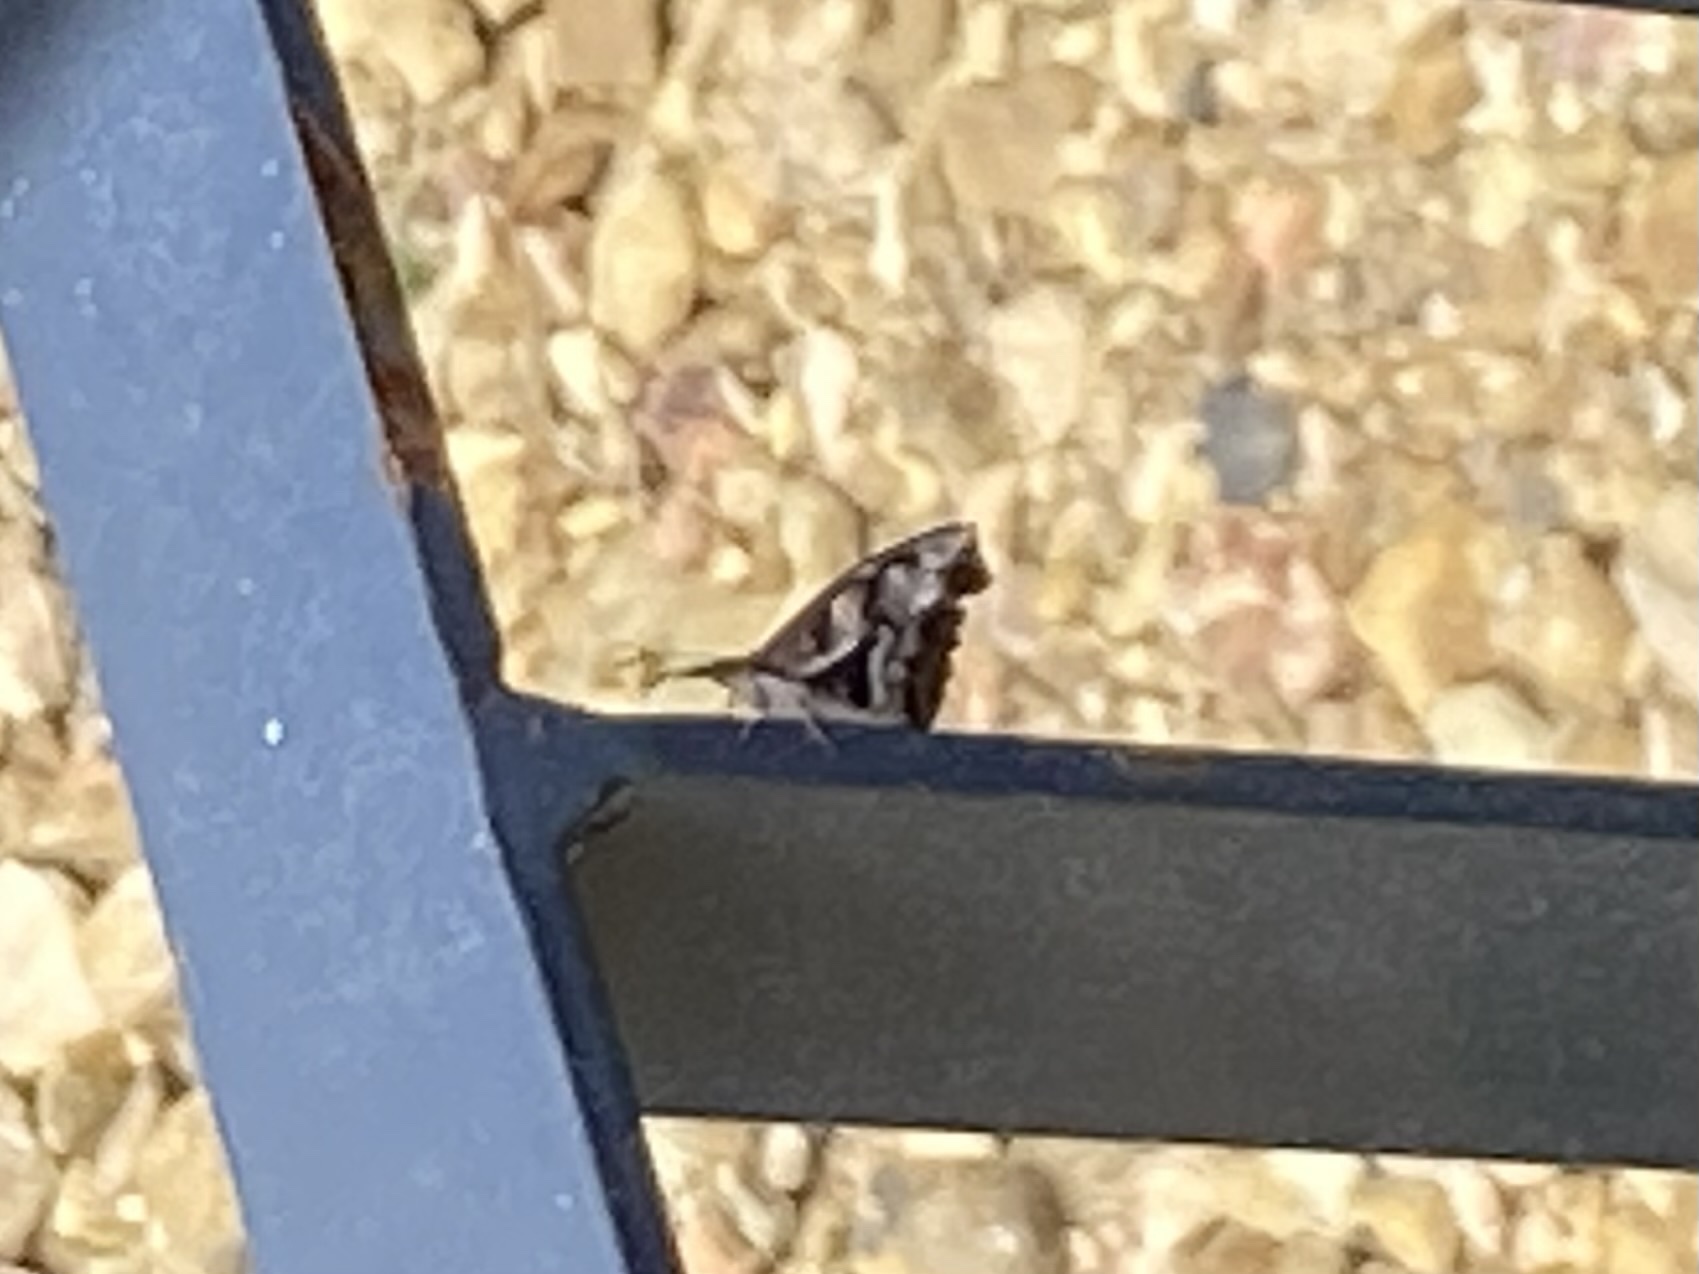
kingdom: Animalia
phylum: Arthropoda
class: Insecta
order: Lepidoptera
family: Nymphalidae
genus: Libytheana
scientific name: Libytheana carinenta
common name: American snout
